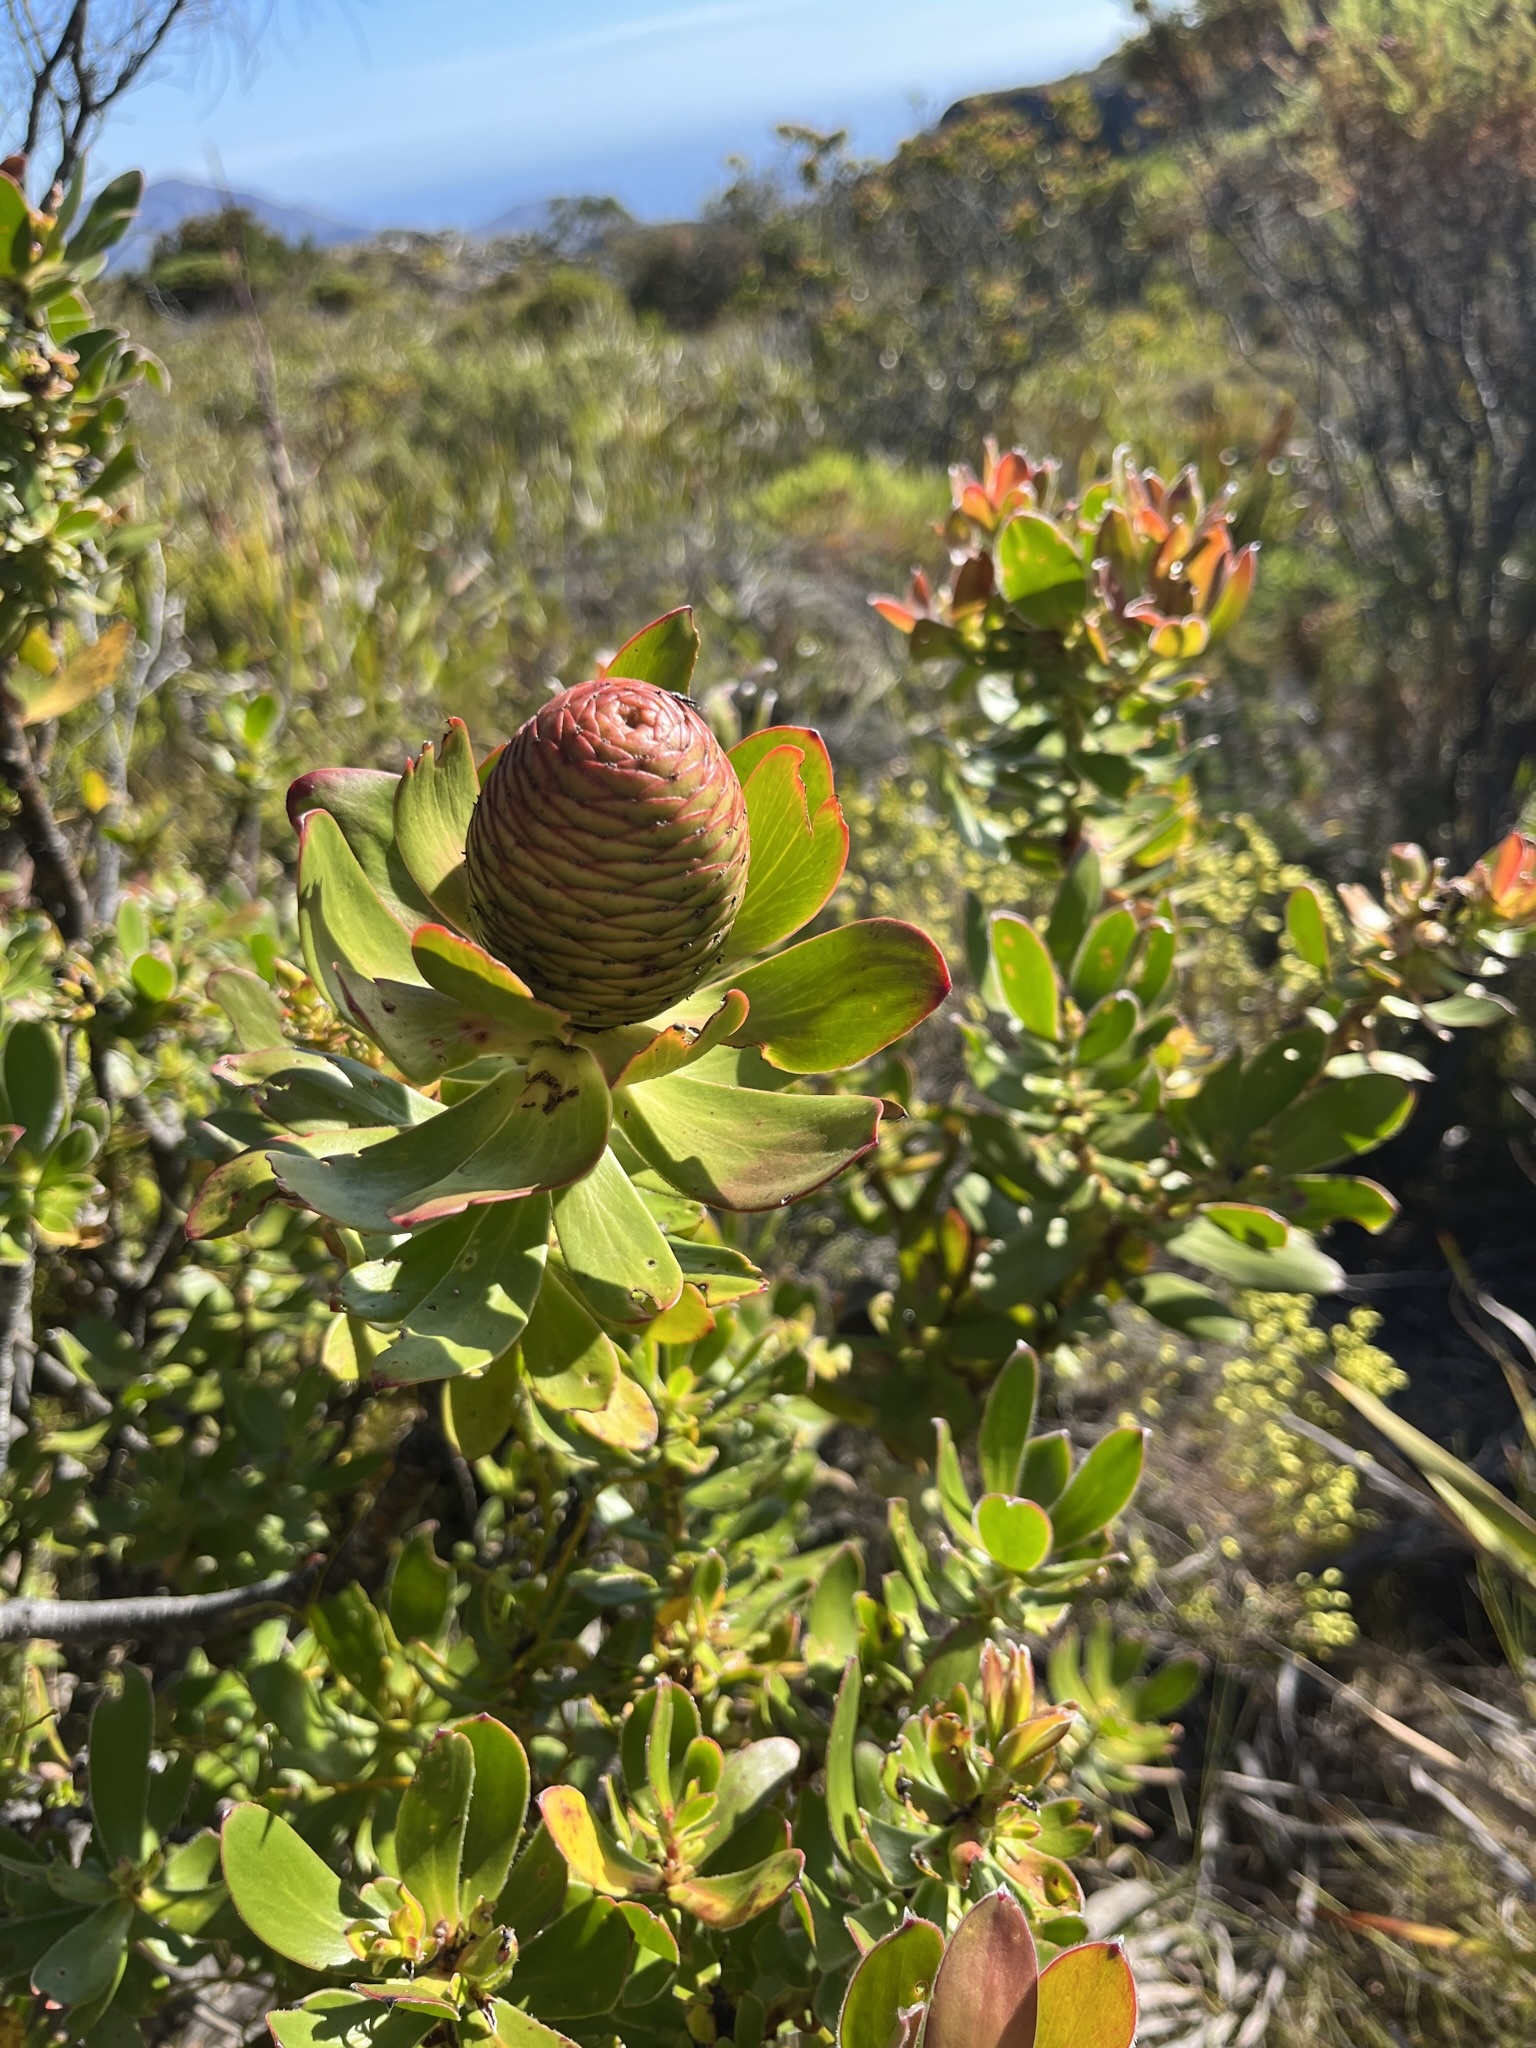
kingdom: Plantae
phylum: Tracheophyta
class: Magnoliopsida
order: Proteales
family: Proteaceae
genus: Leucadendron
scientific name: Leucadendron strobilinum
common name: Mountain rose
